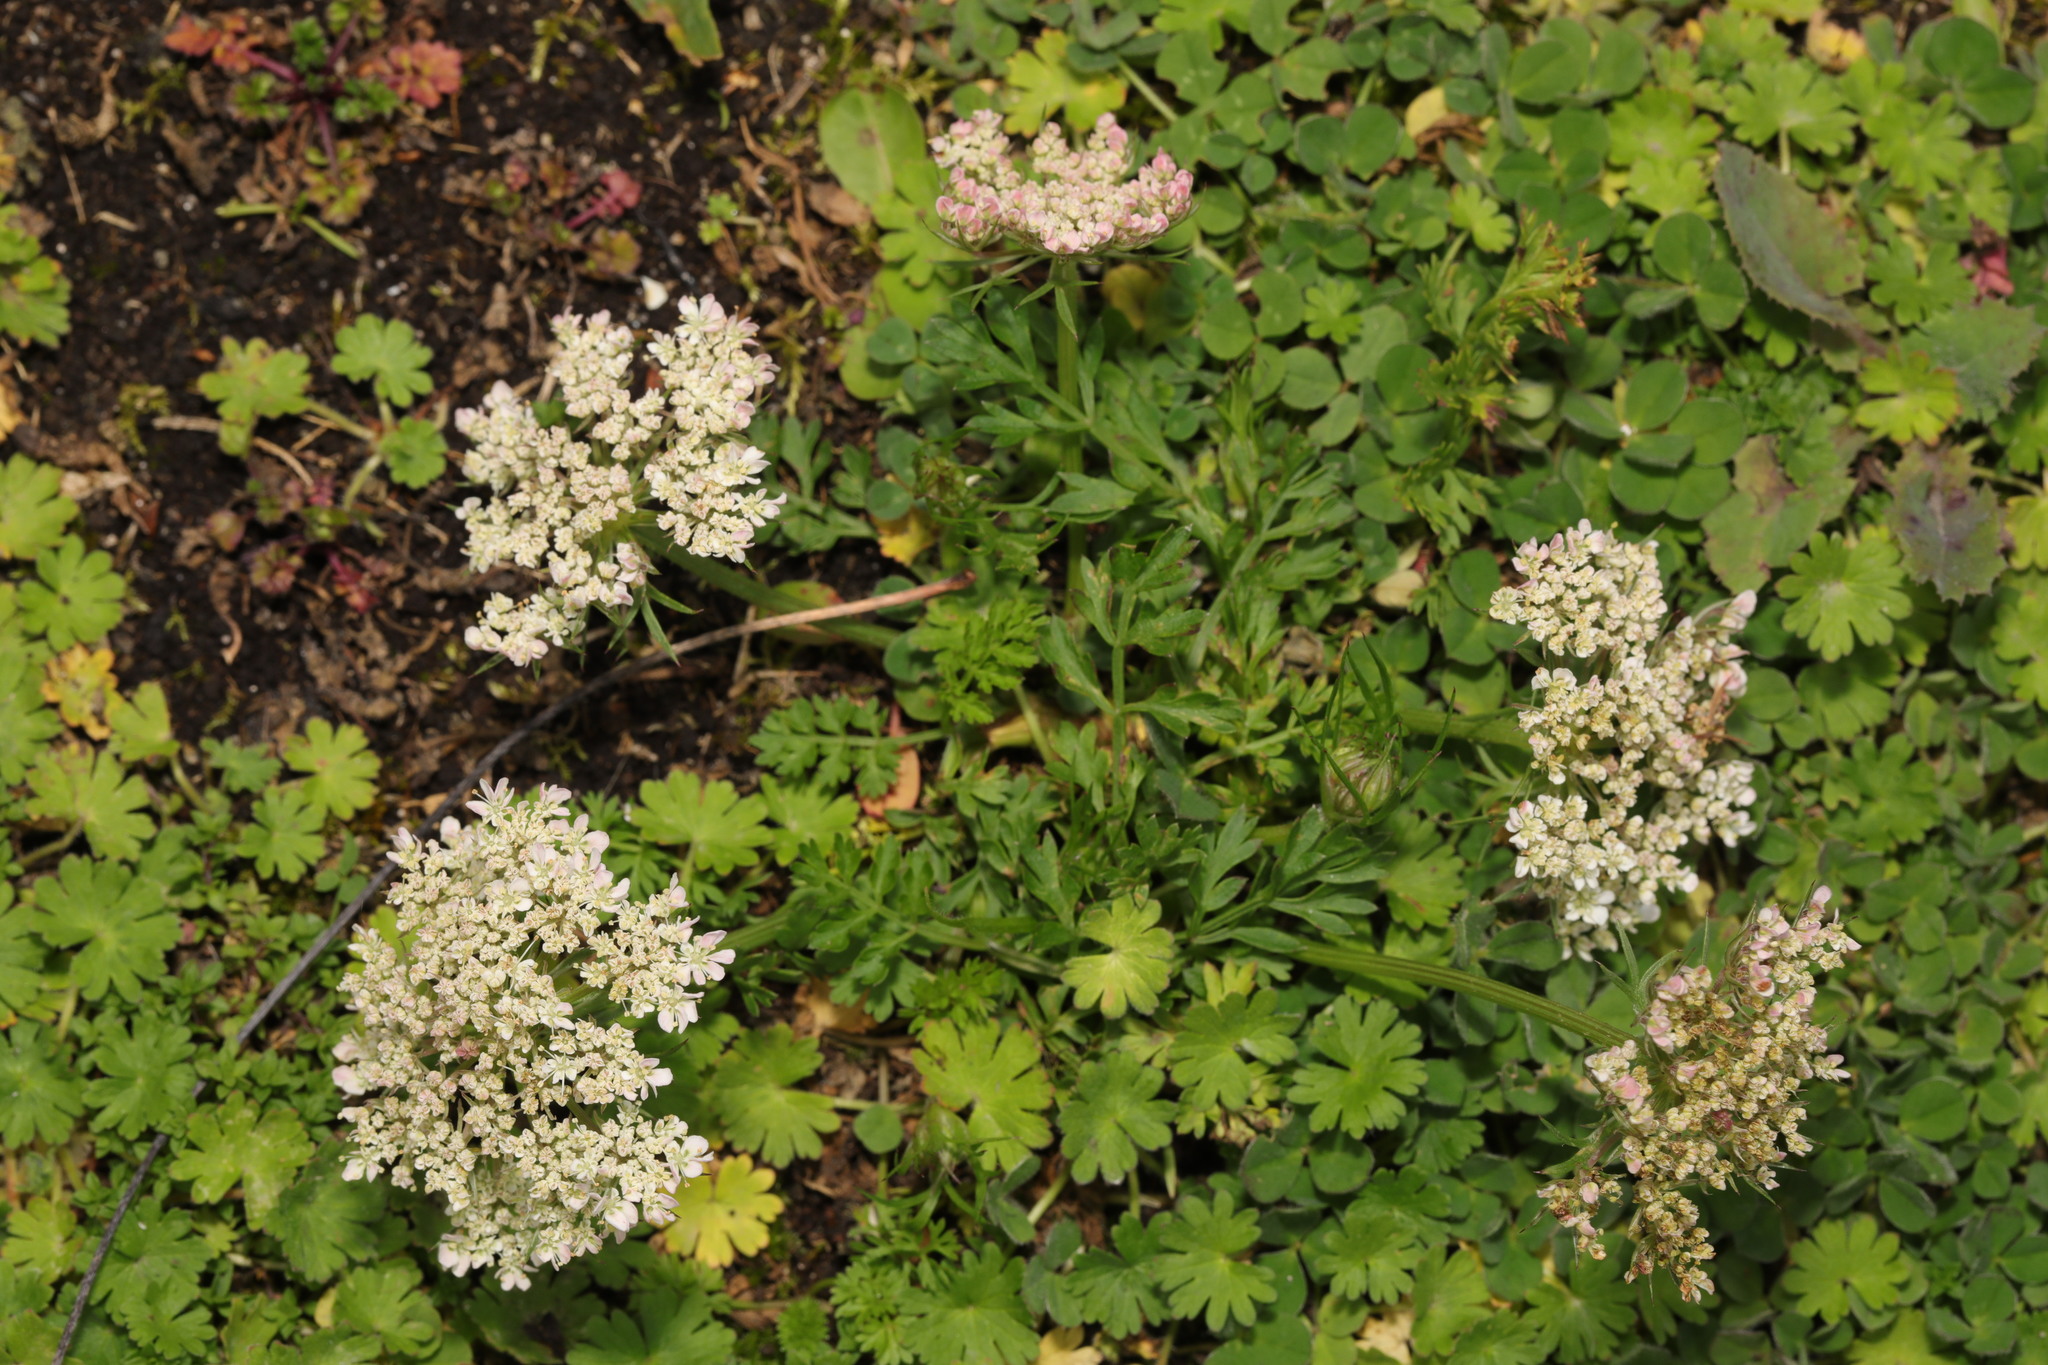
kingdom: Plantae
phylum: Tracheophyta
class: Magnoliopsida
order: Apiales
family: Apiaceae
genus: Daucus
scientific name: Daucus carota
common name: Wild carrot
